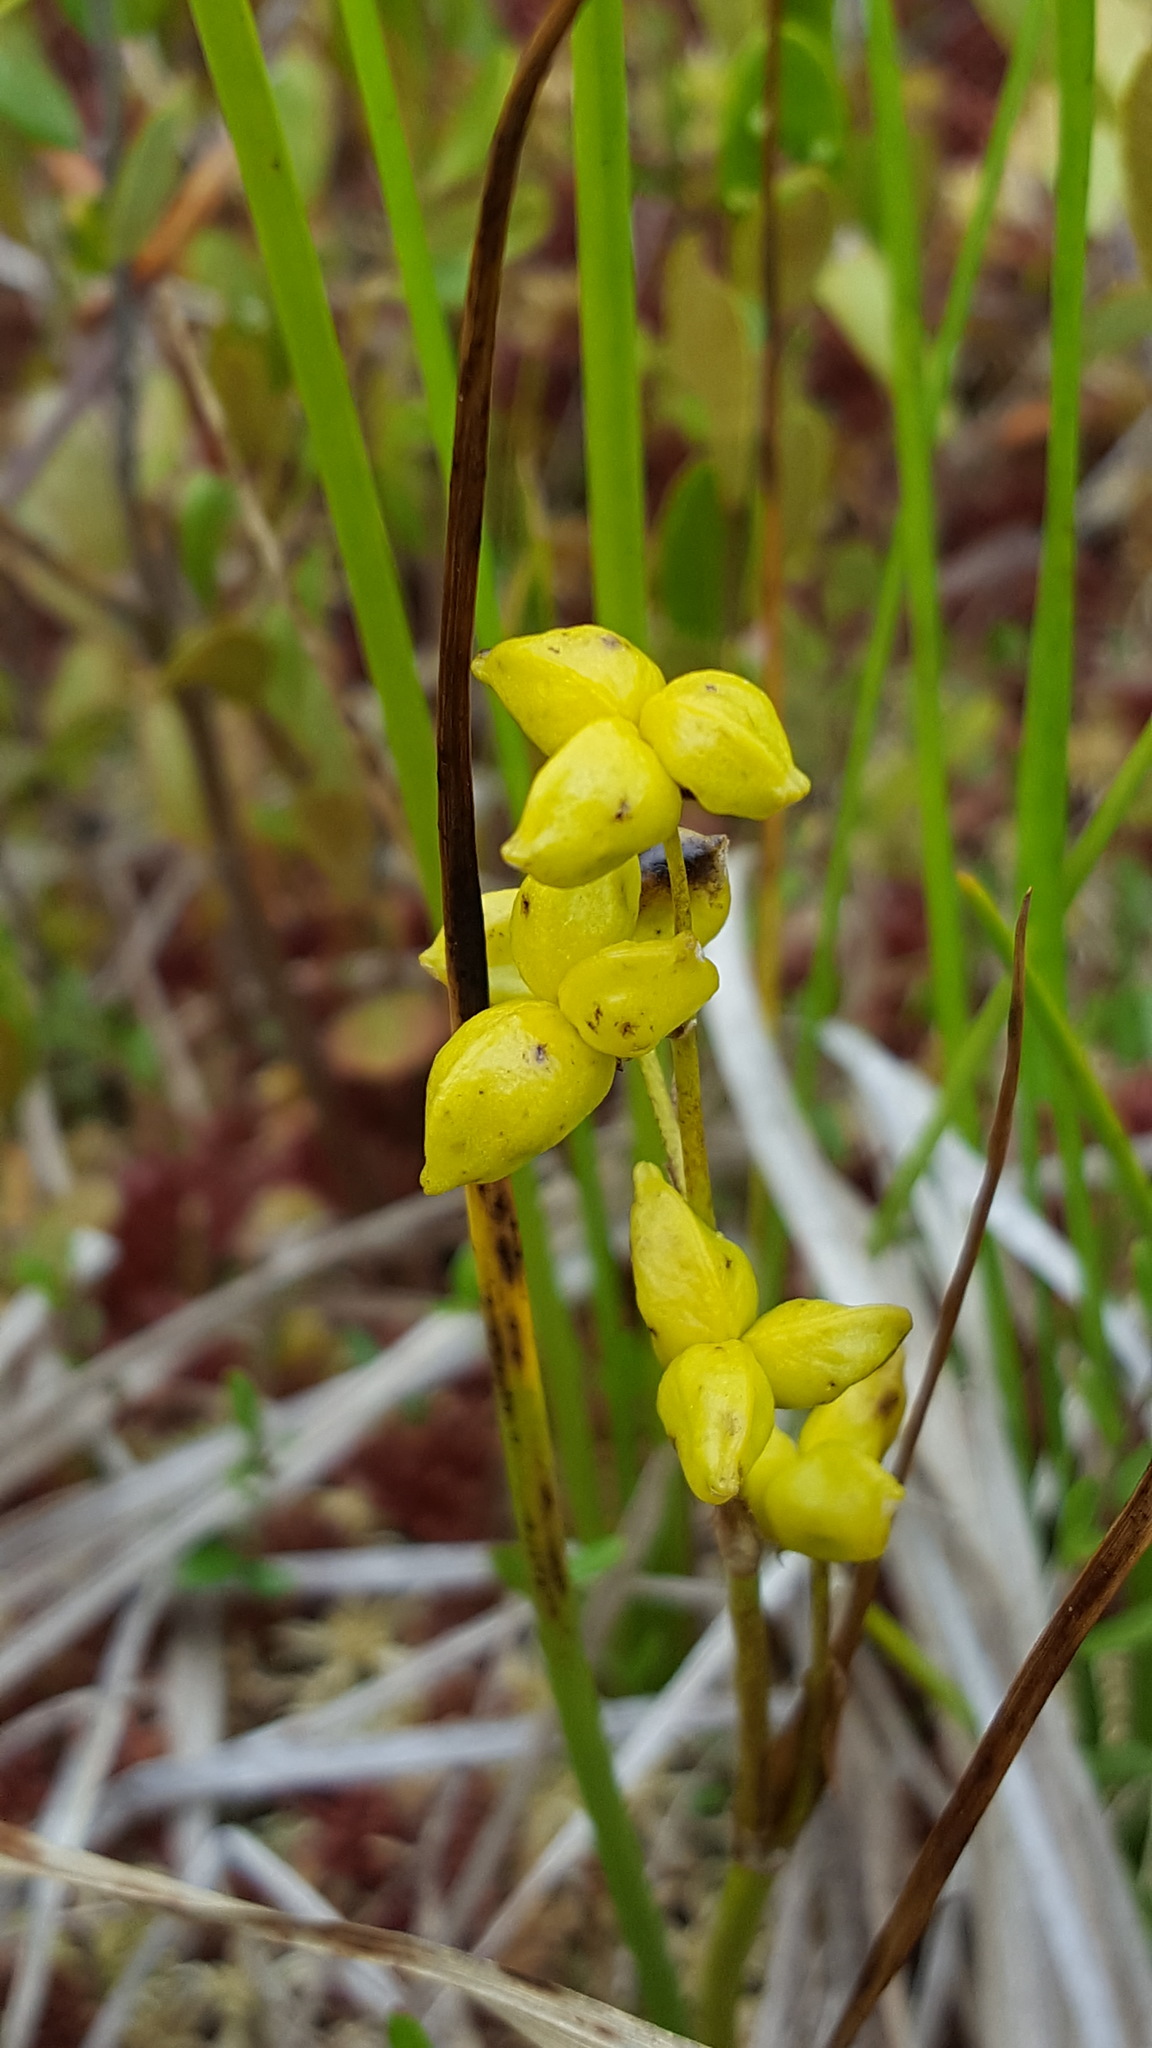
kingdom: Plantae
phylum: Tracheophyta
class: Liliopsida
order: Alismatales
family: Scheuchzeriaceae
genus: Scheuchzeria
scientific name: Scheuchzeria palustris
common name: Rannoch-rush
